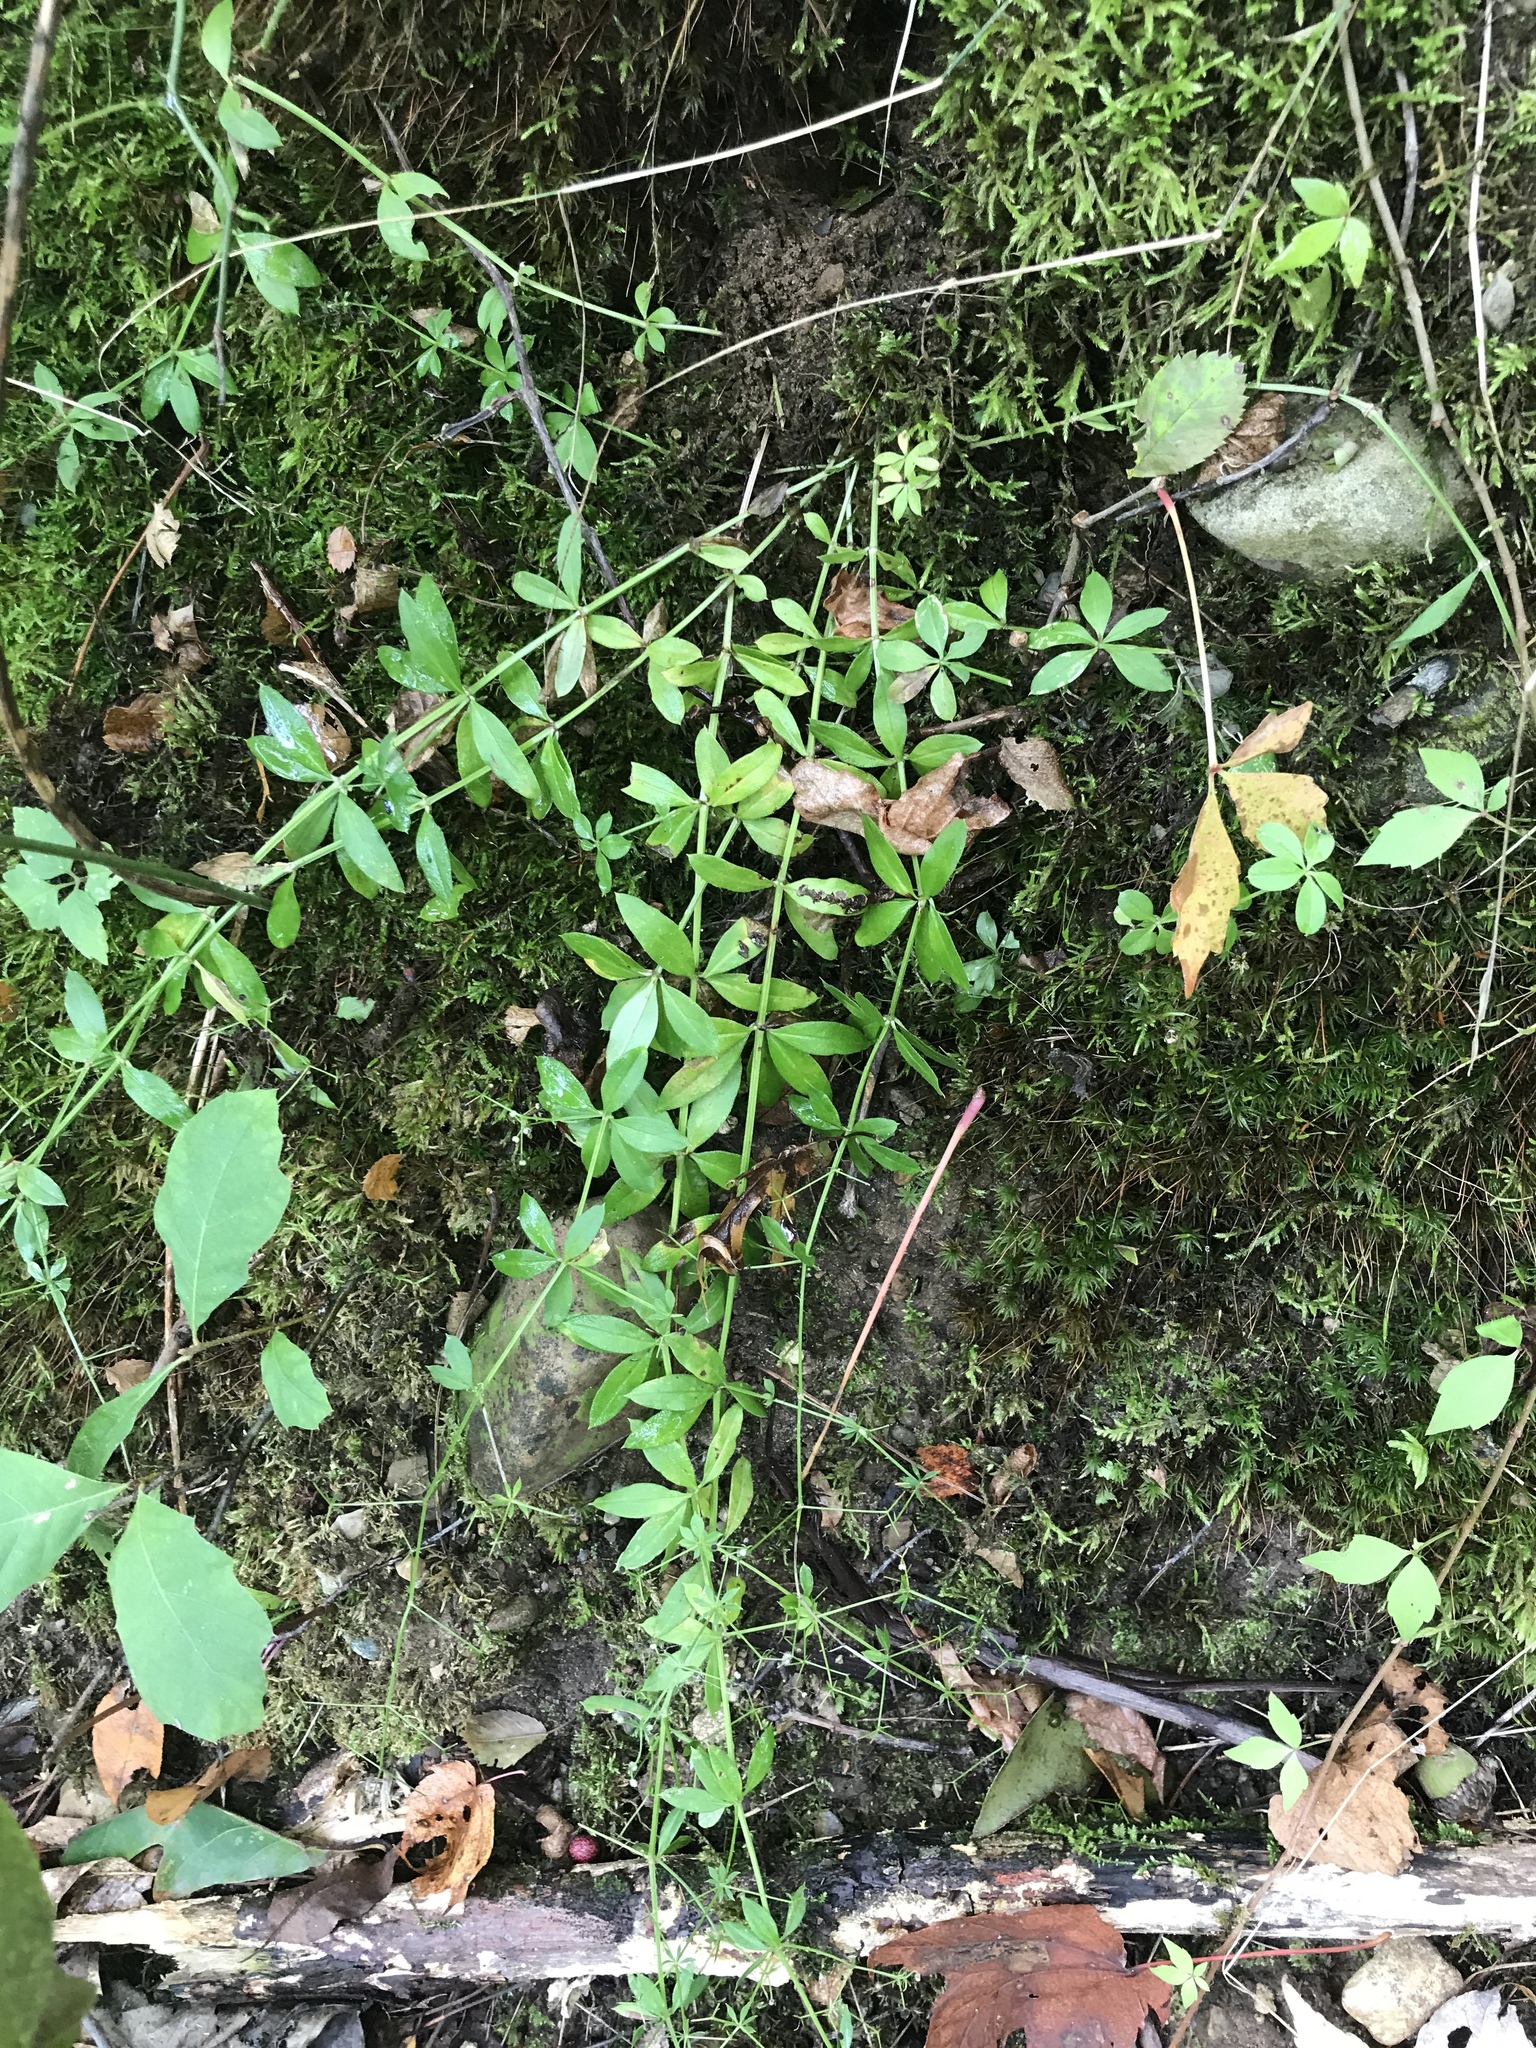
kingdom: Plantae
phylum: Tracheophyta
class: Magnoliopsida
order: Gentianales
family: Rubiaceae
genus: Galium
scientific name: Galium triflorum
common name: Fragrant bedstraw
